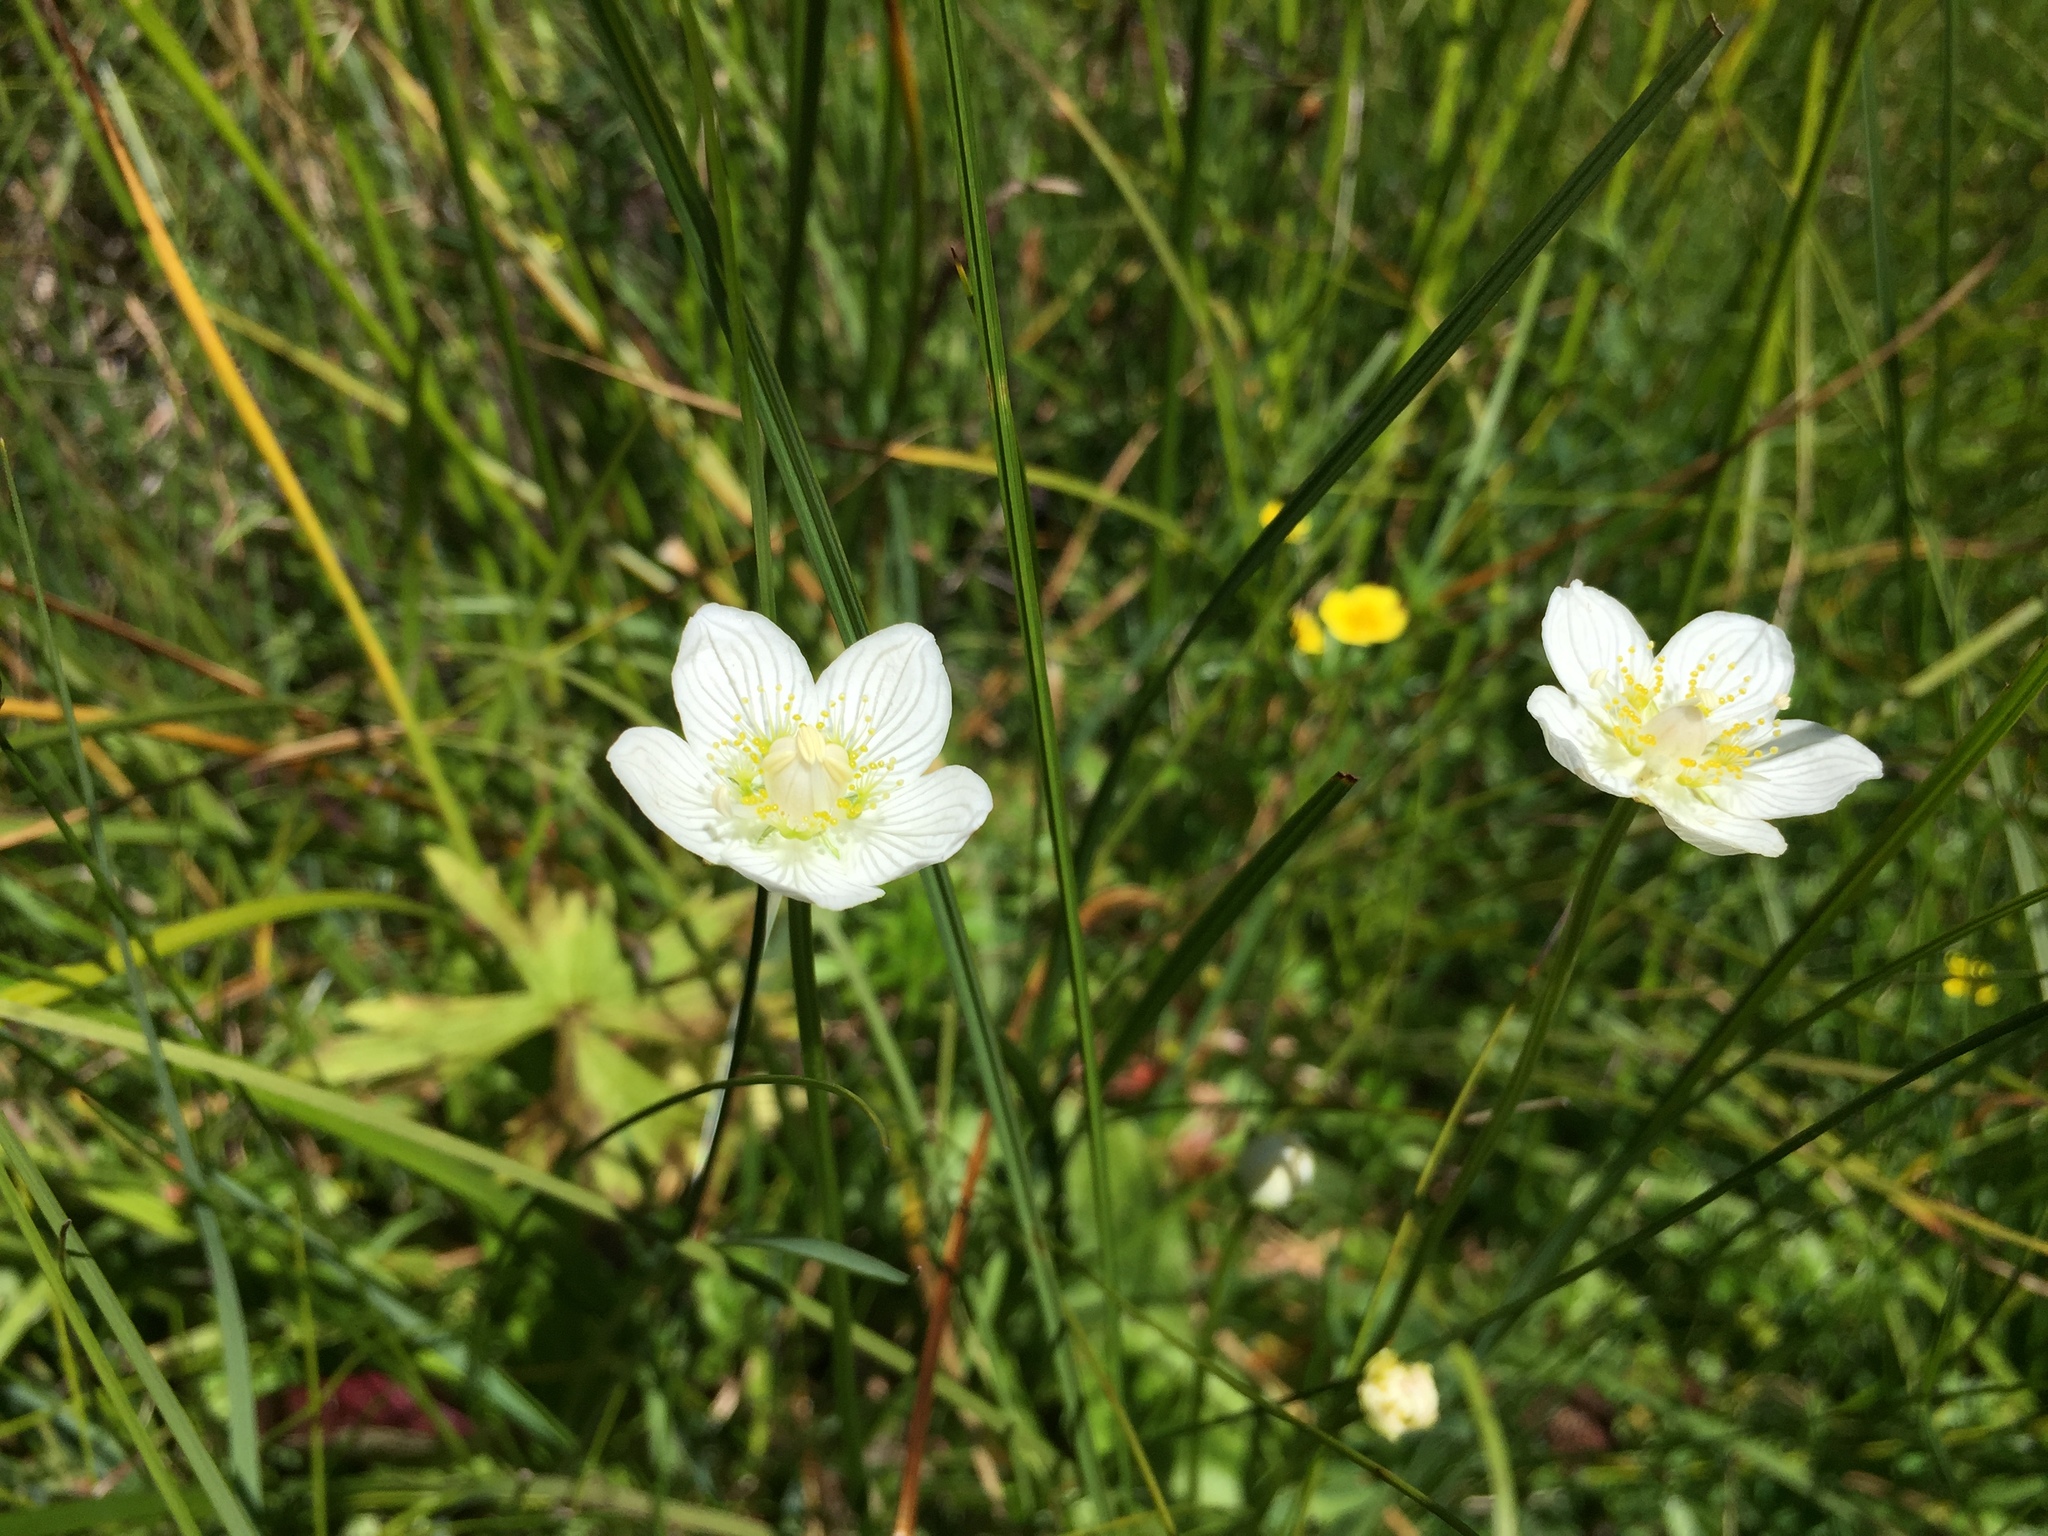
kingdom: Plantae
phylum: Tracheophyta
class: Magnoliopsida
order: Celastrales
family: Parnassiaceae
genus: Parnassia
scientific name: Parnassia palustris
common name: Grass-of-parnassus
